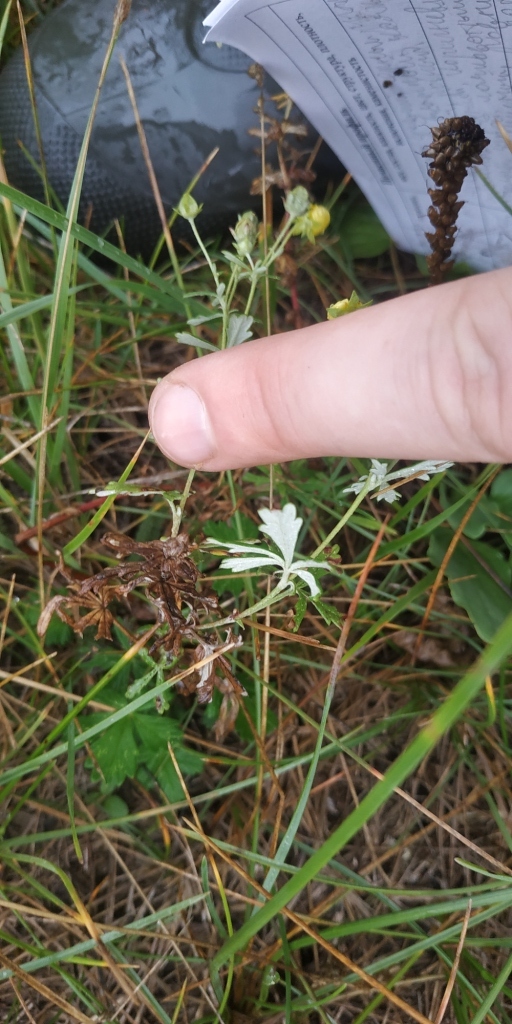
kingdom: Plantae
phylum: Tracheophyta
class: Magnoliopsida
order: Rosales
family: Rosaceae
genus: Potentilla
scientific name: Potentilla argentea
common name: Hoary cinquefoil
